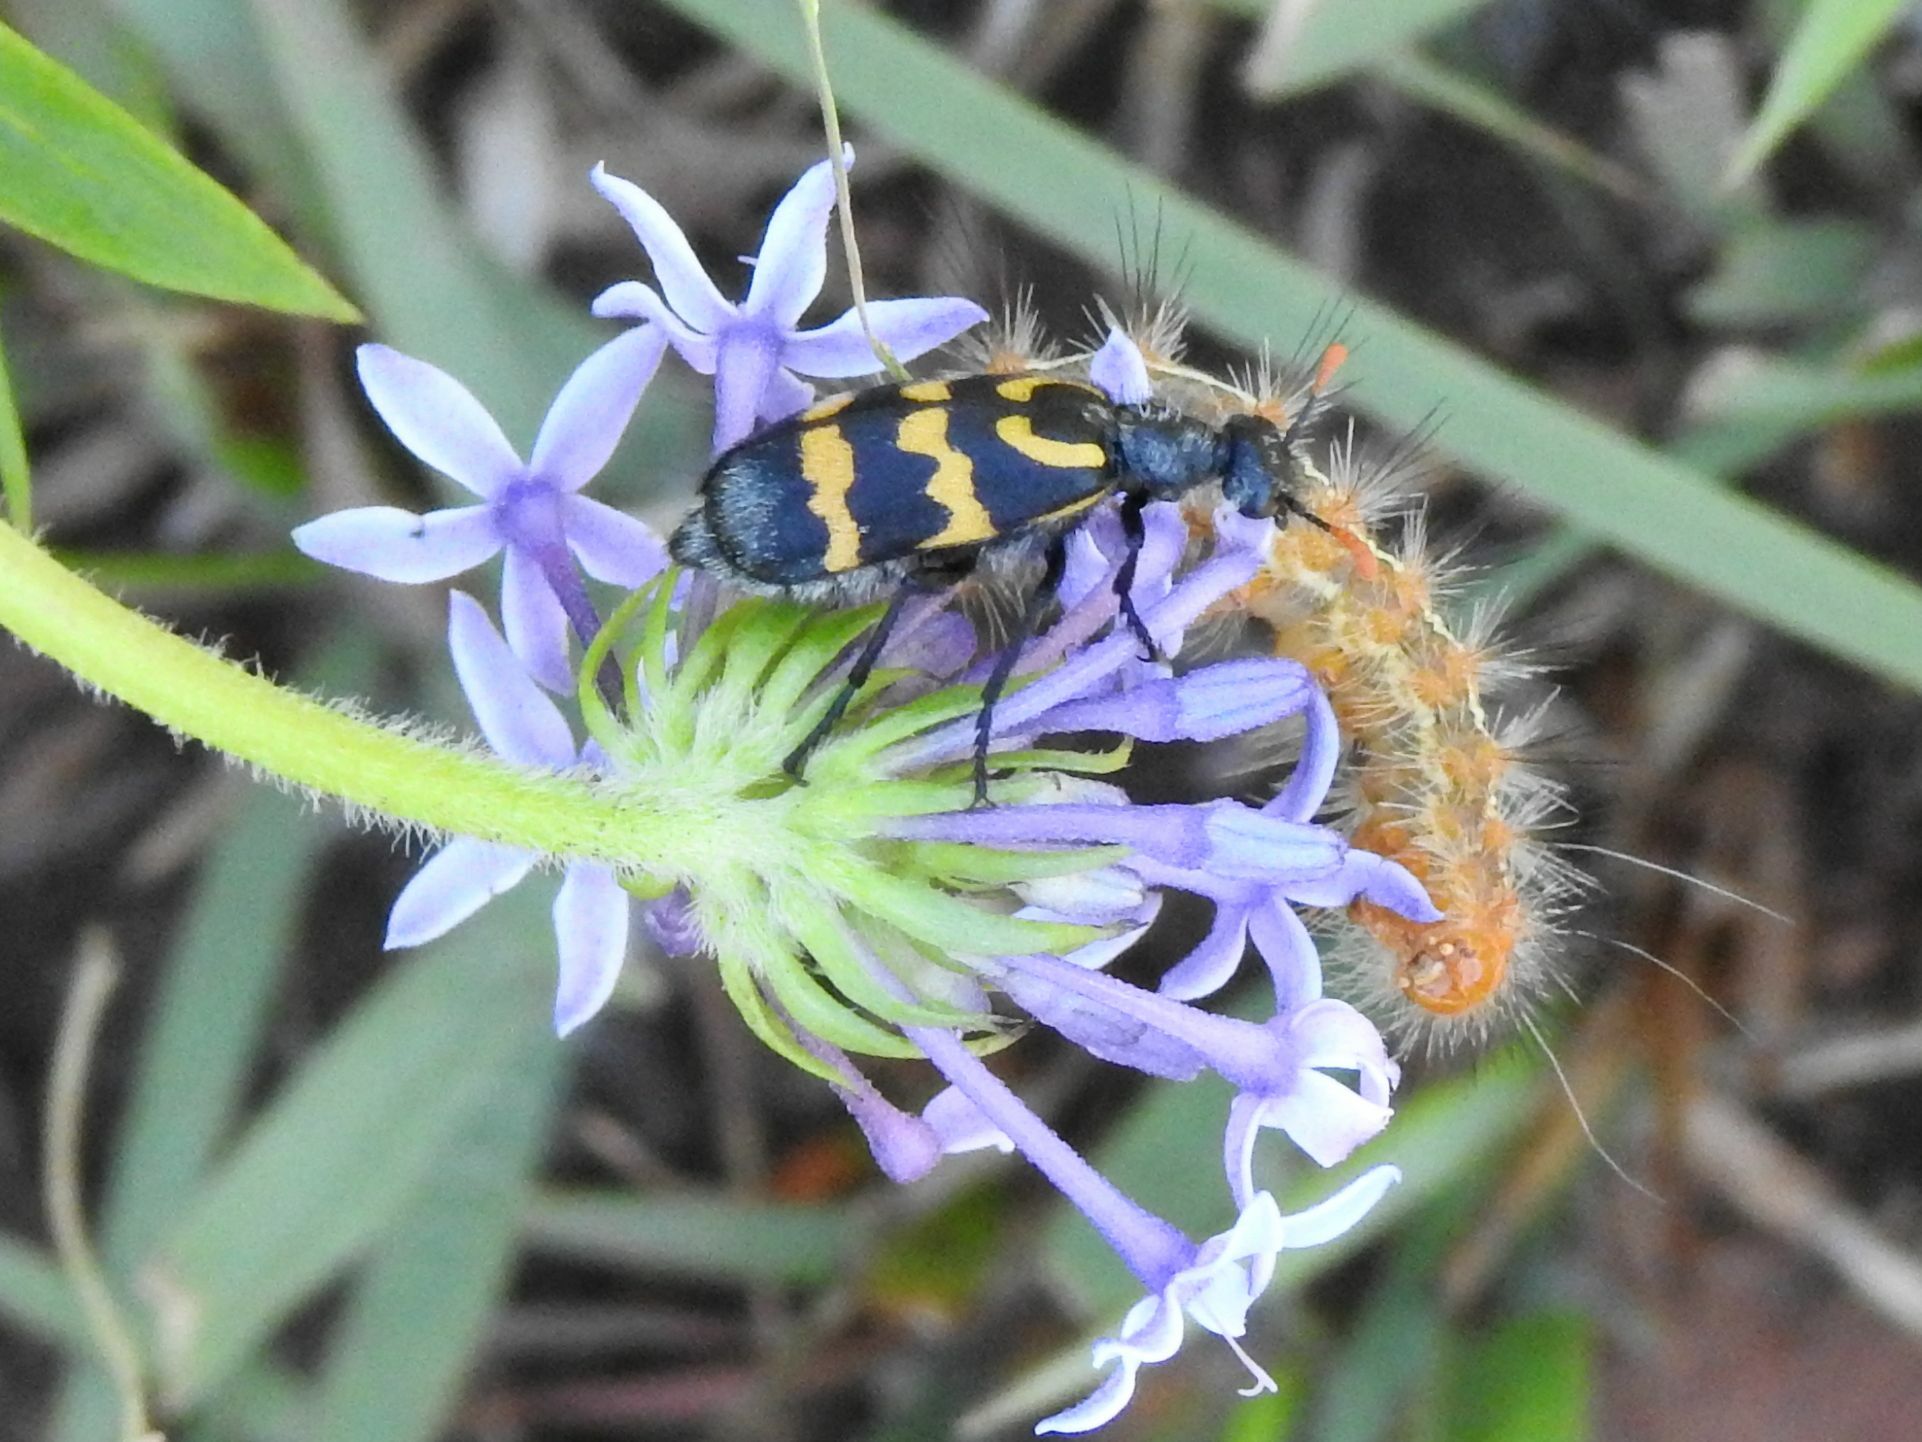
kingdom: Animalia
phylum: Arthropoda
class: Insecta
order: Coleoptera
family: Meloidae
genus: Meloe
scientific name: Meloe lunata
